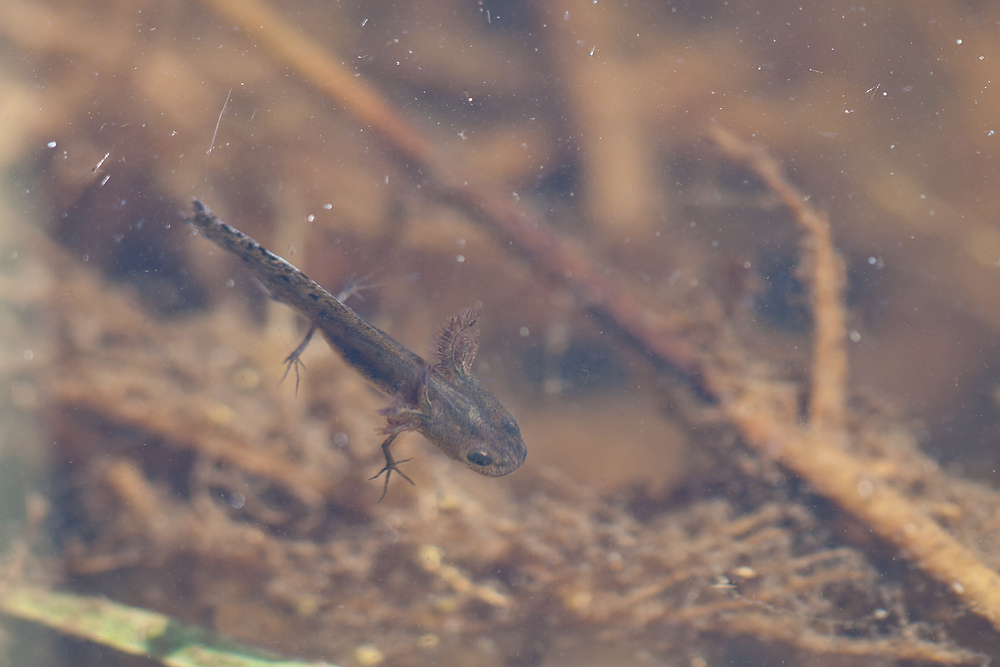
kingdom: Animalia
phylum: Chordata
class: Amphibia
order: Caudata
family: Salamandridae
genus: Triturus
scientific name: Triturus cristatus
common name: Crested newt
